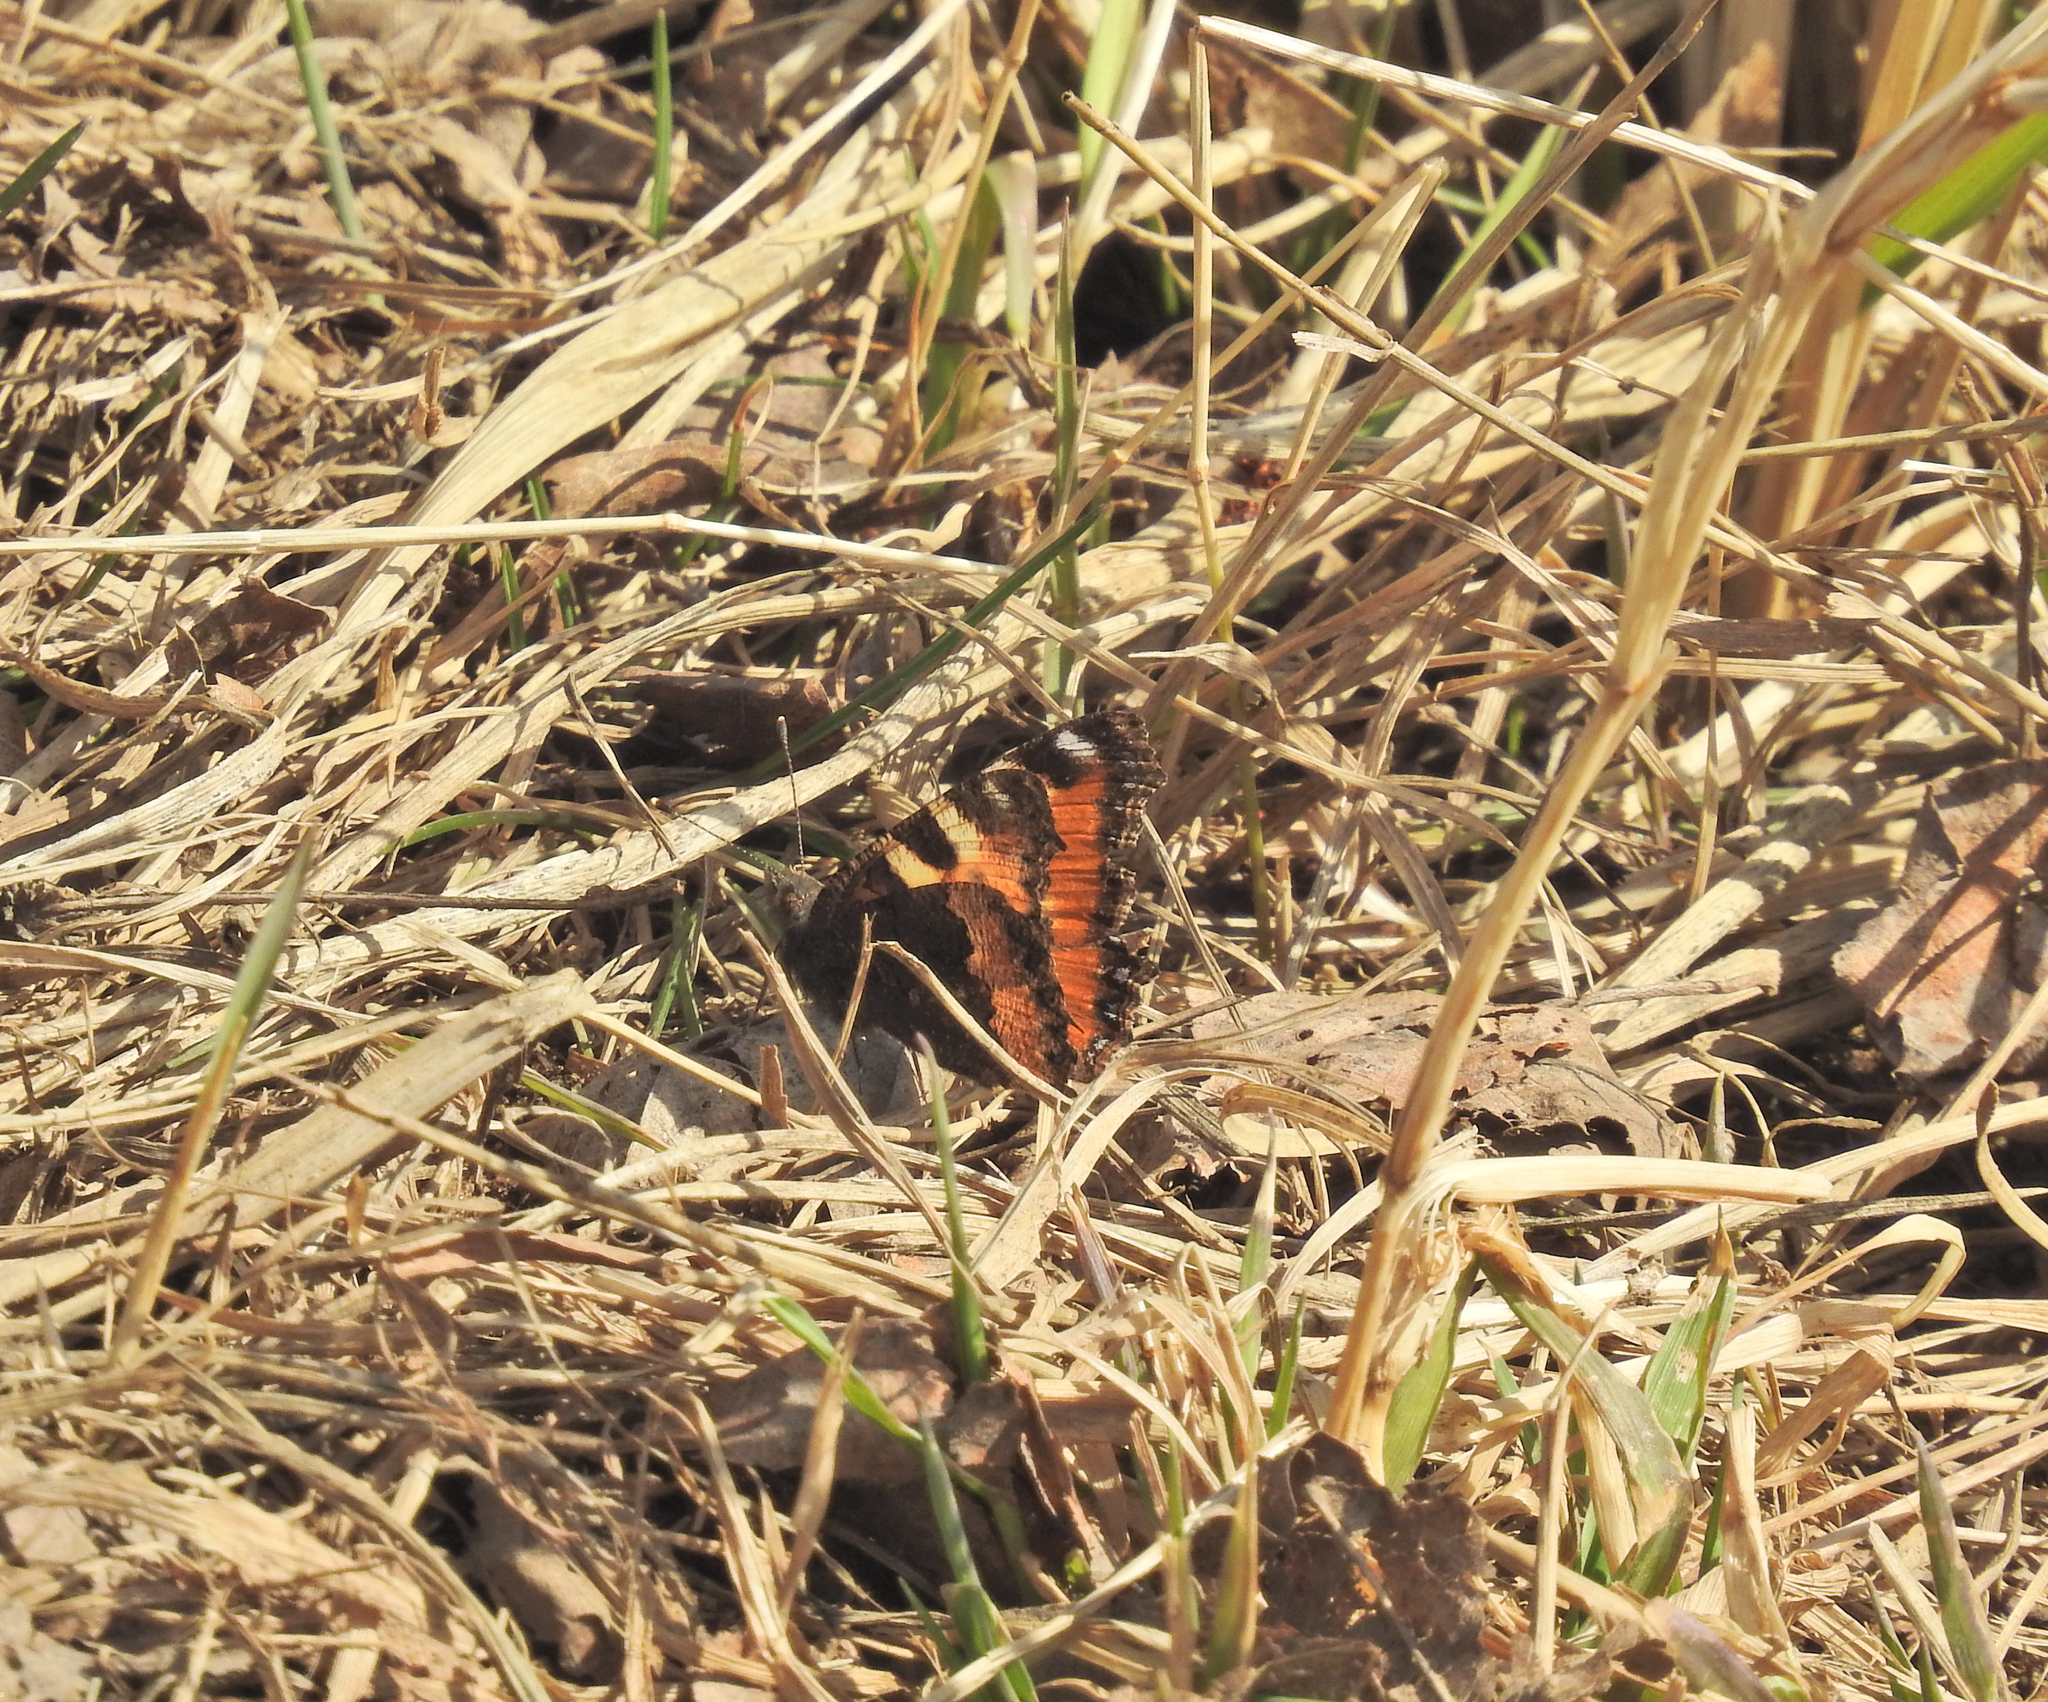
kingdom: Animalia
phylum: Arthropoda
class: Insecta
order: Lepidoptera
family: Nymphalidae
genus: Aglais
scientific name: Aglais urticae
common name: Small tortoiseshell
